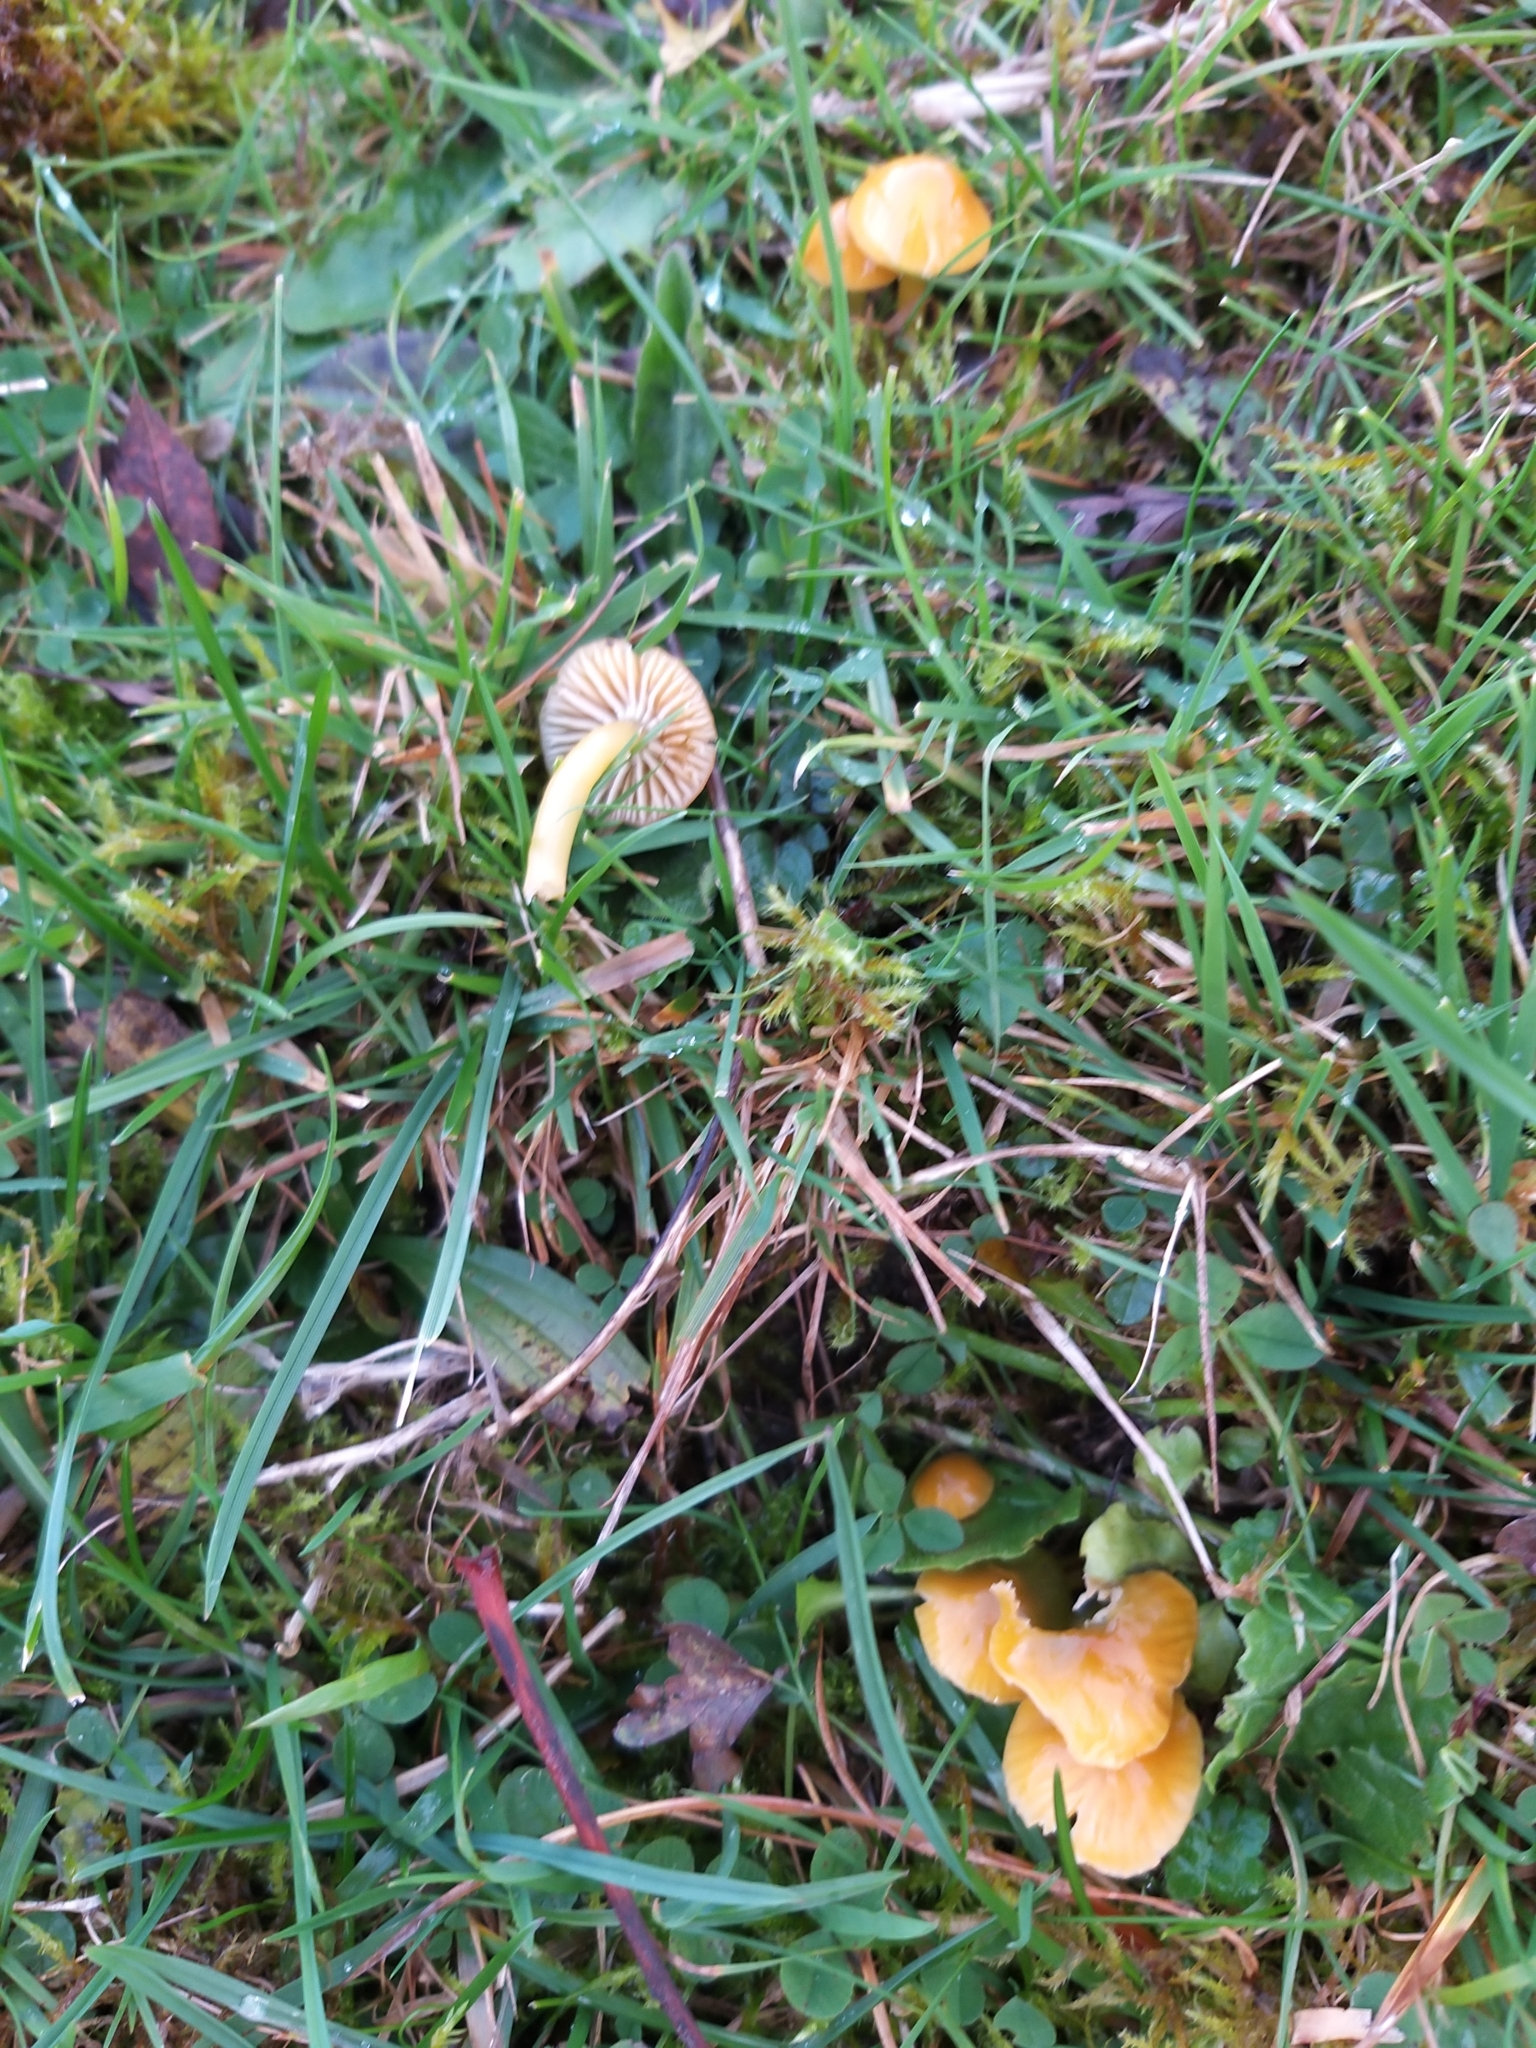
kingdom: Fungi
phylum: Basidiomycota
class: Agaricomycetes
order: Agaricales
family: Hygrophoraceae
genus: Gliophorus
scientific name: Gliophorus psittacinus
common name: Parrot wax-cap
